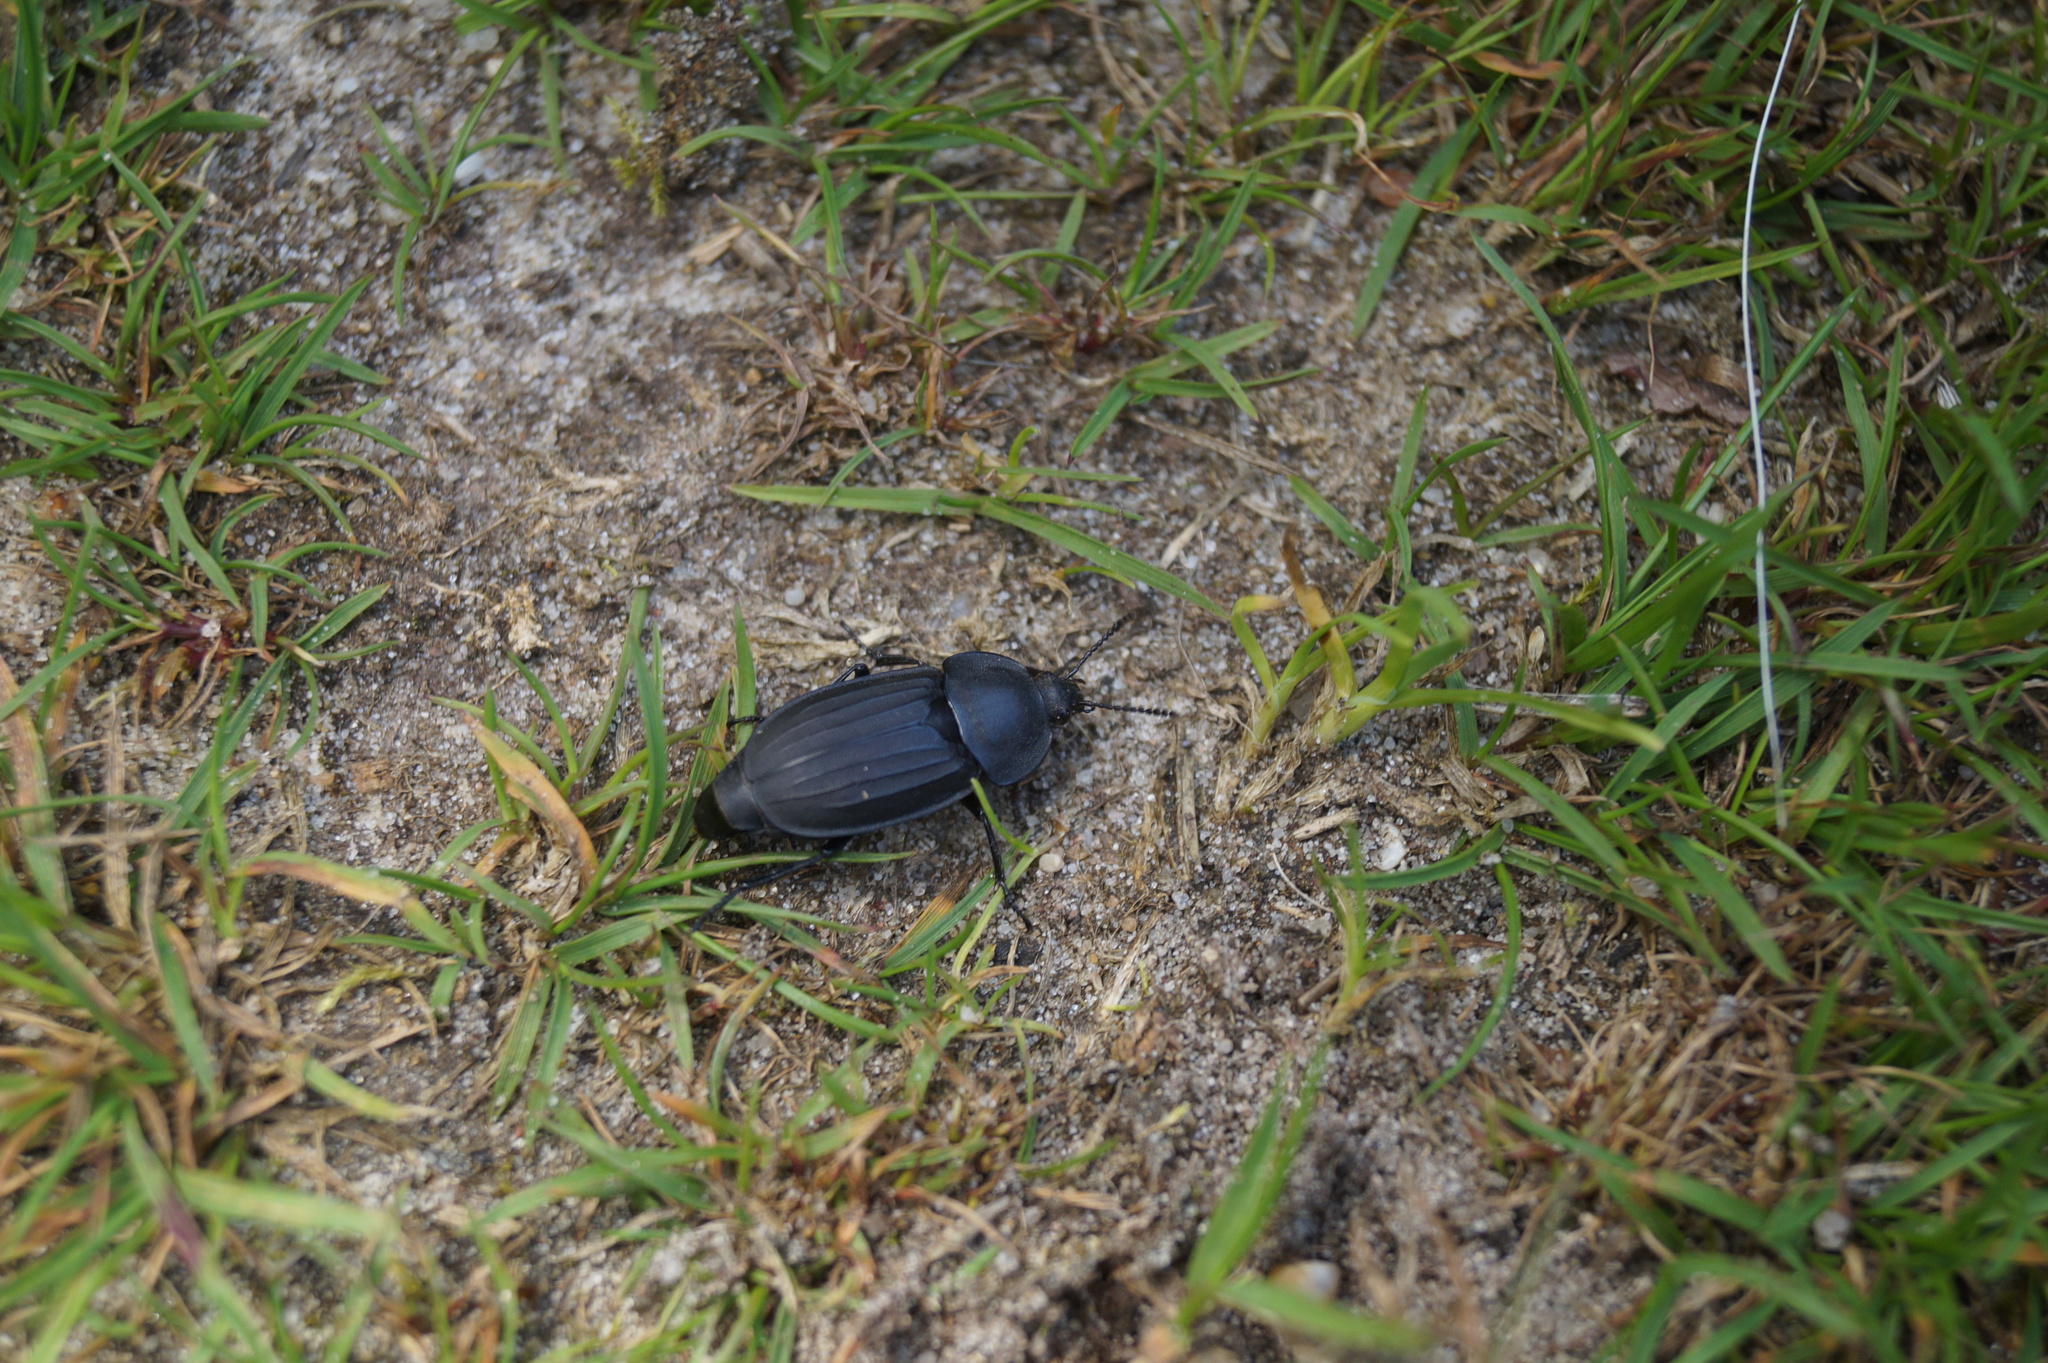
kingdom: Animalia
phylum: Arthropoda
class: Insecta
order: Coleoptera
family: Staphylinidae
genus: Silpha
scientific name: Silpha tristis
